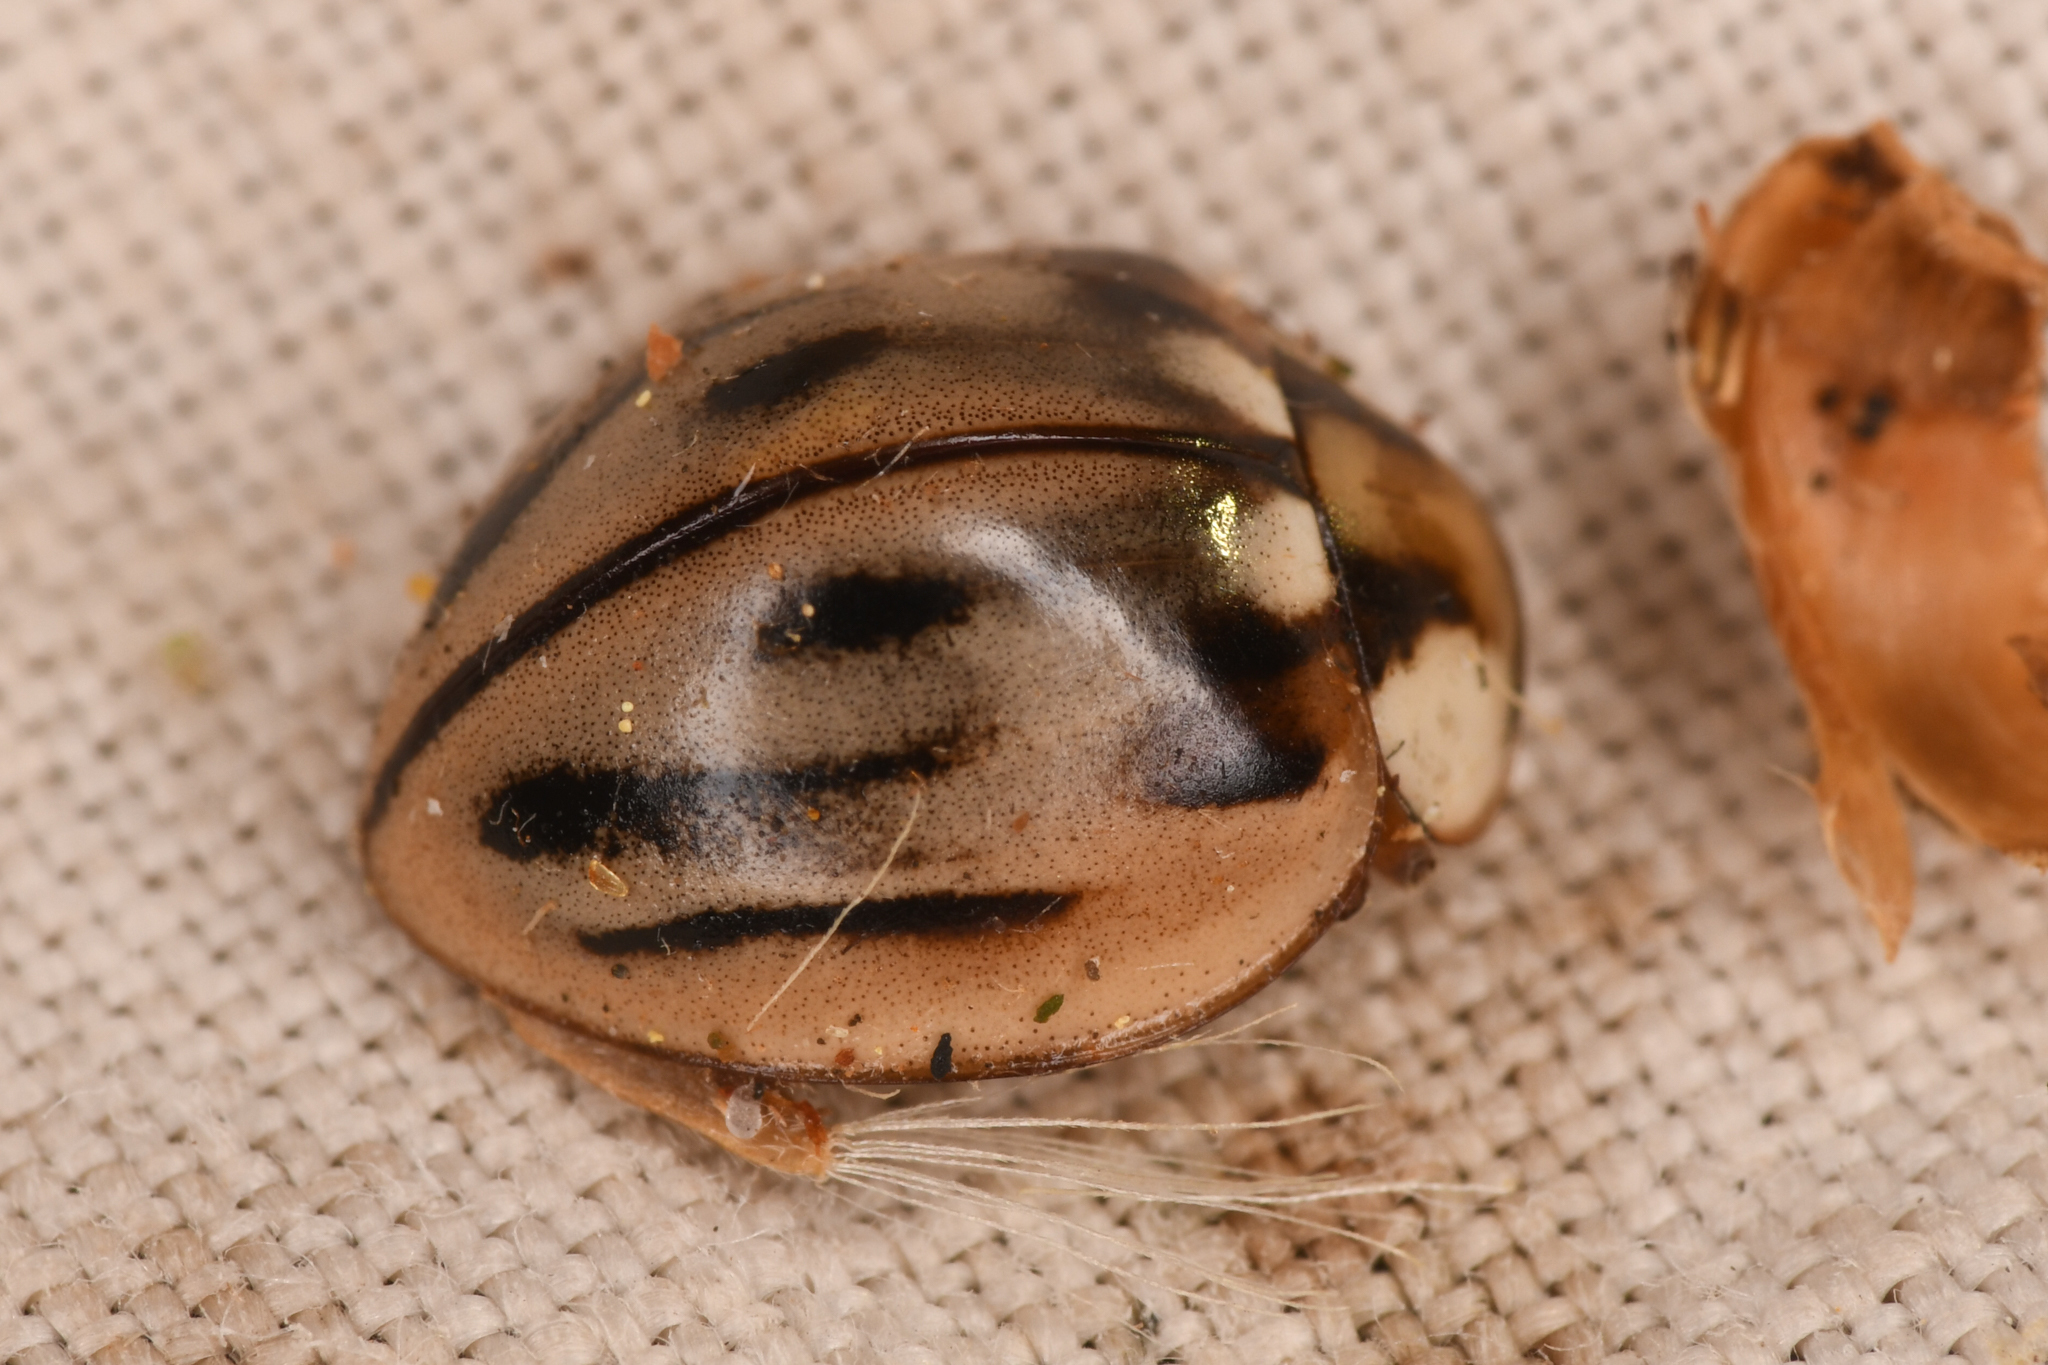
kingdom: Animalia
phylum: Arthropoda
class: Insecta
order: Coleoptera
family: Coccinellidae
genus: Myzia
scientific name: Myzia subvittata
